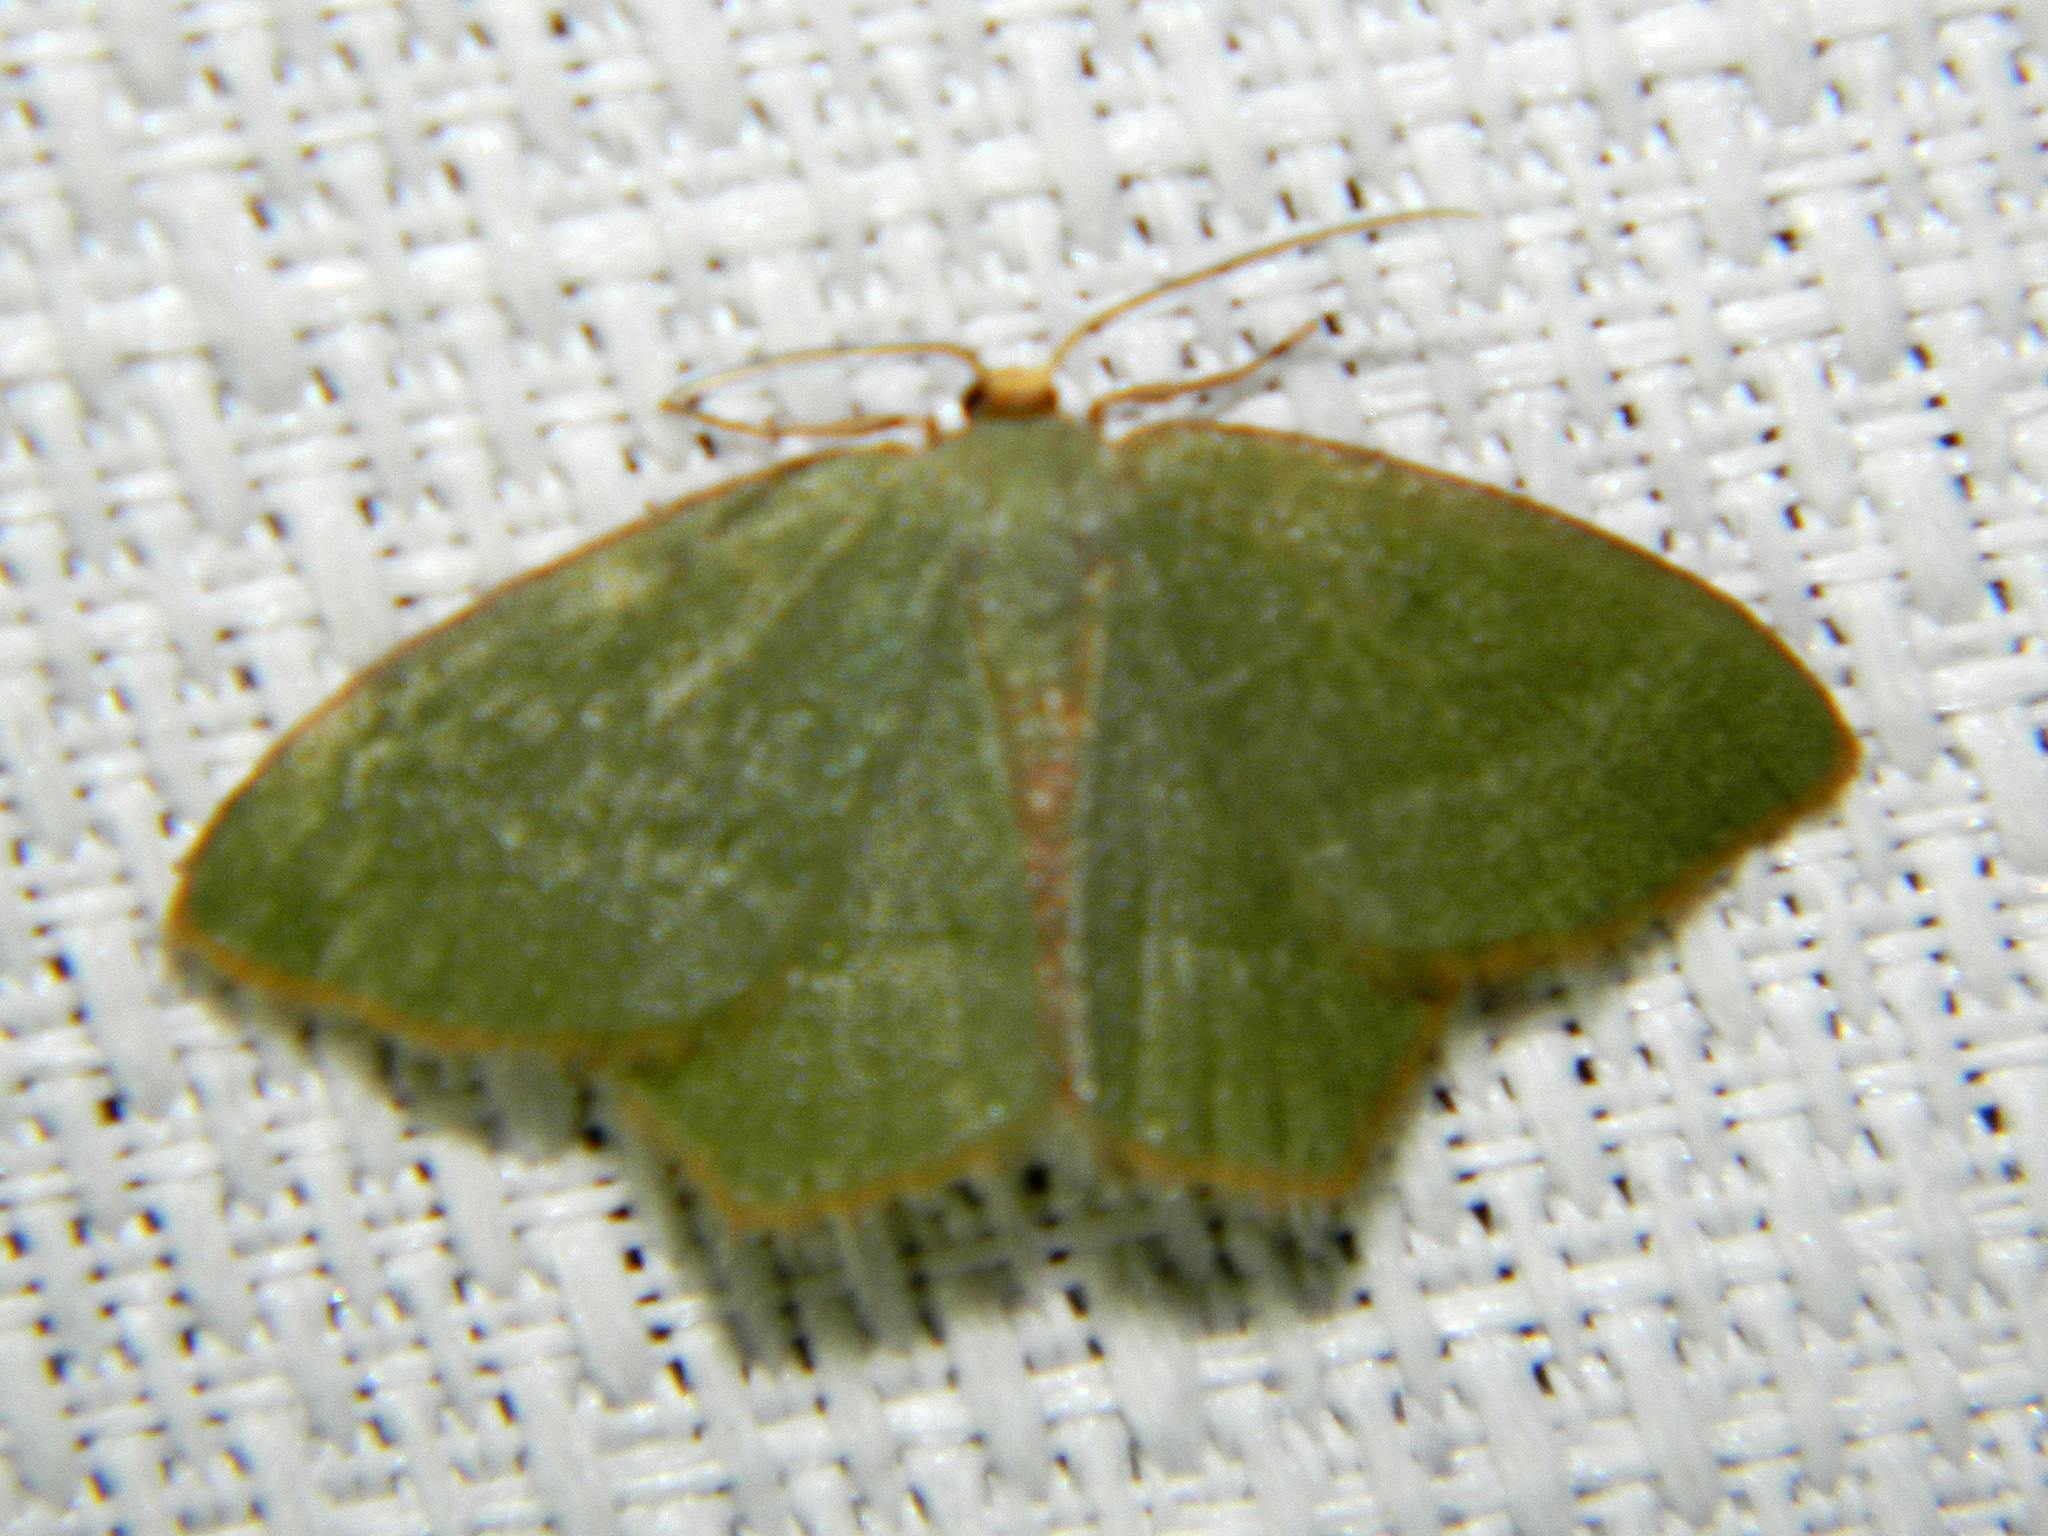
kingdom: Animalia
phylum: Arthropoda
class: Insecta
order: Lepidoptera
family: Geometridae
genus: Thalera
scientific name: Thalera pistasciaria
